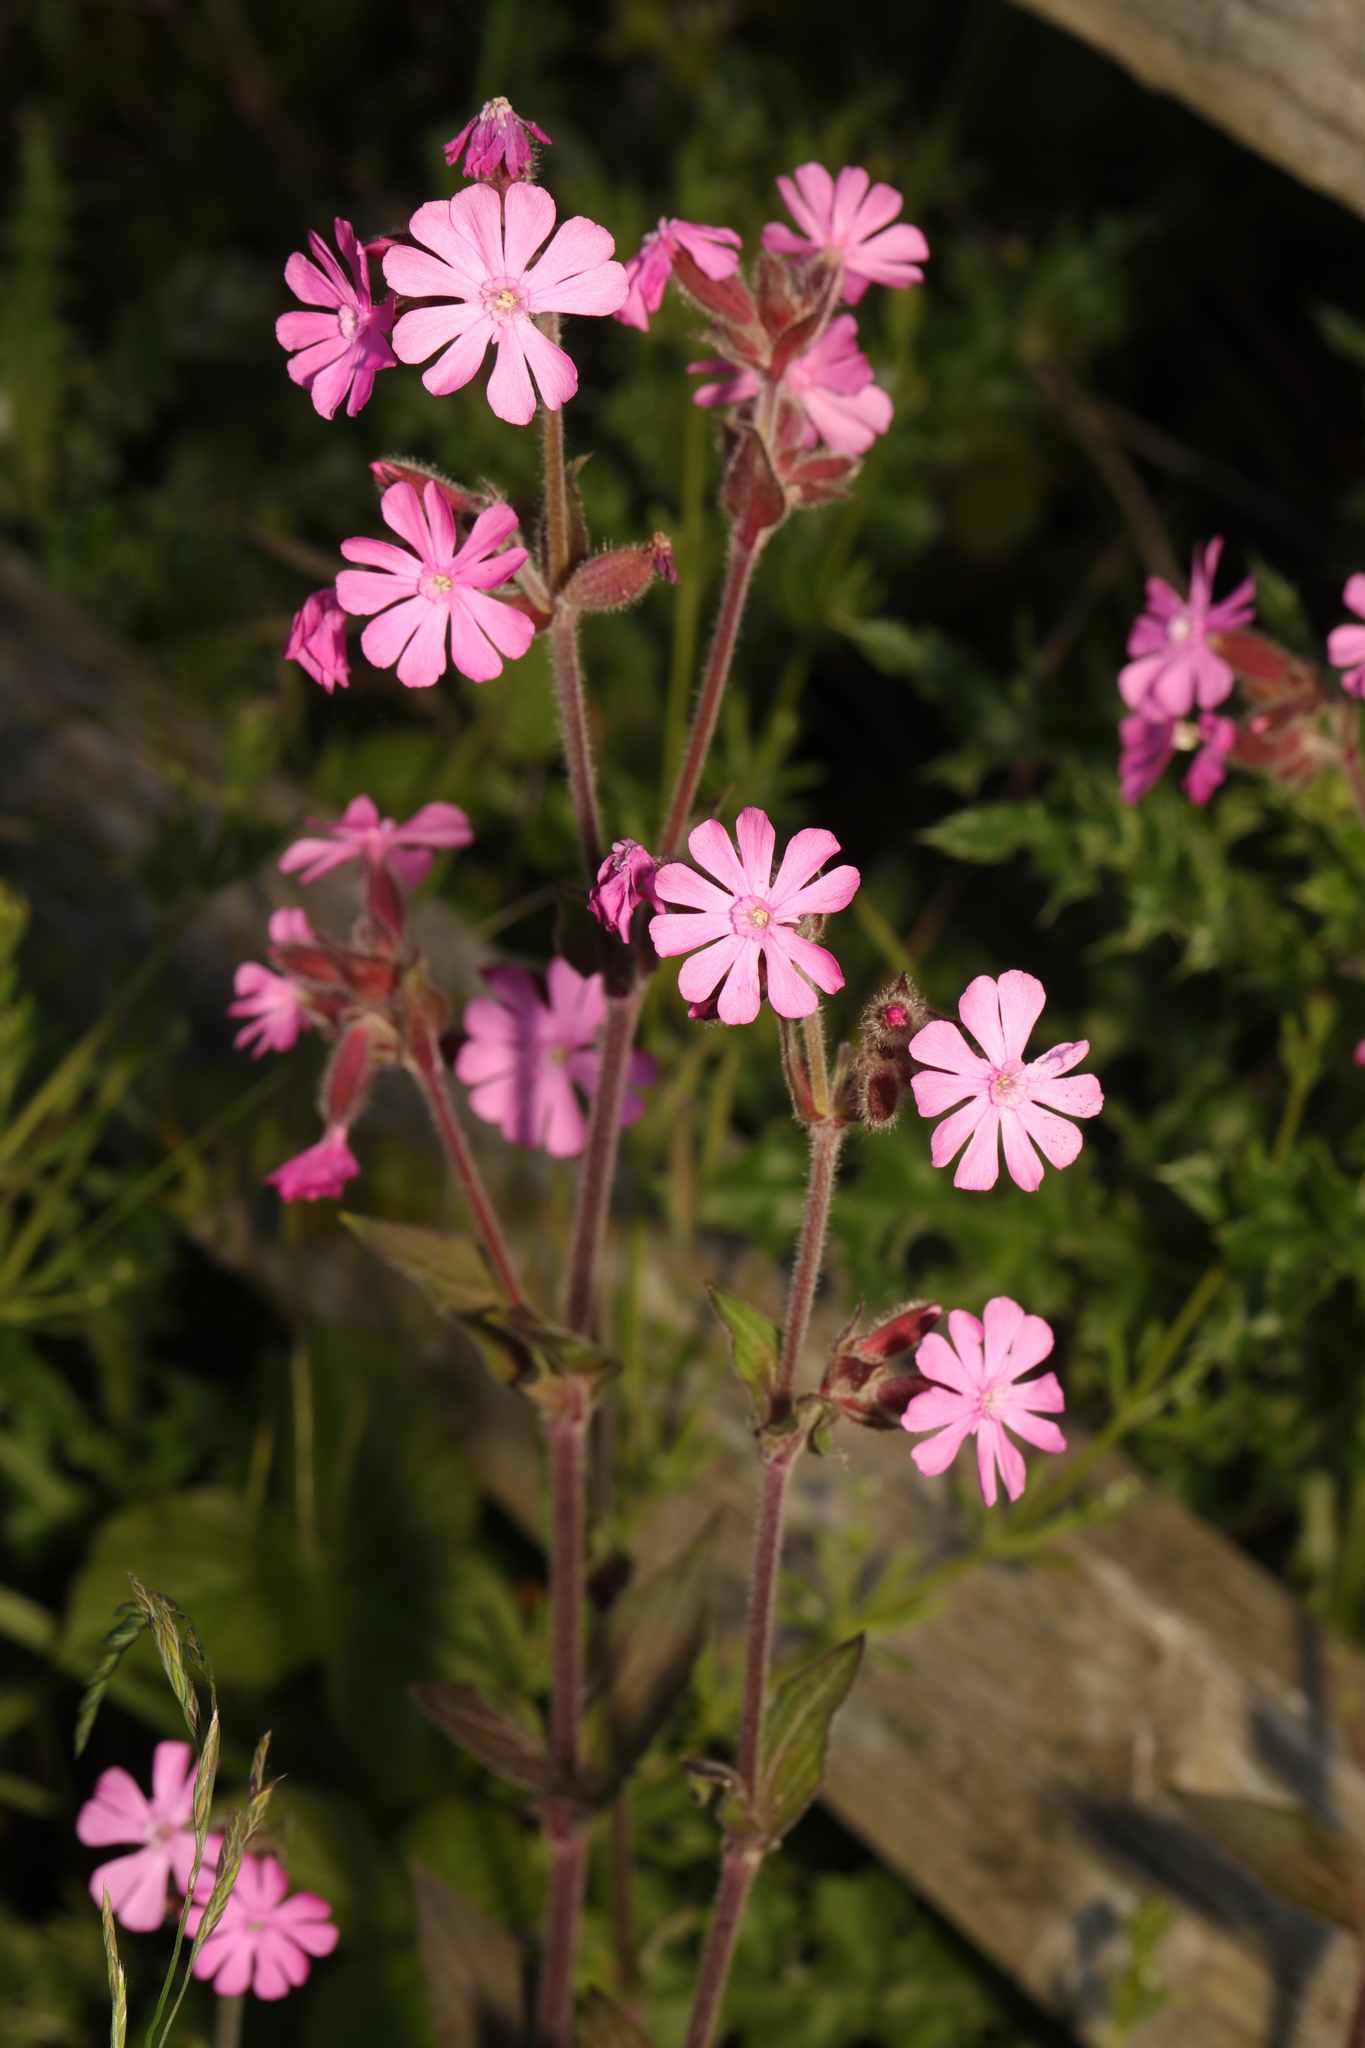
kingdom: Plantae
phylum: Tracheophyta
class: Magnoliopsida
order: Caryophyllales
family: Caryophyllaceae
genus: Silene
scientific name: Silene dioica
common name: Red campion
